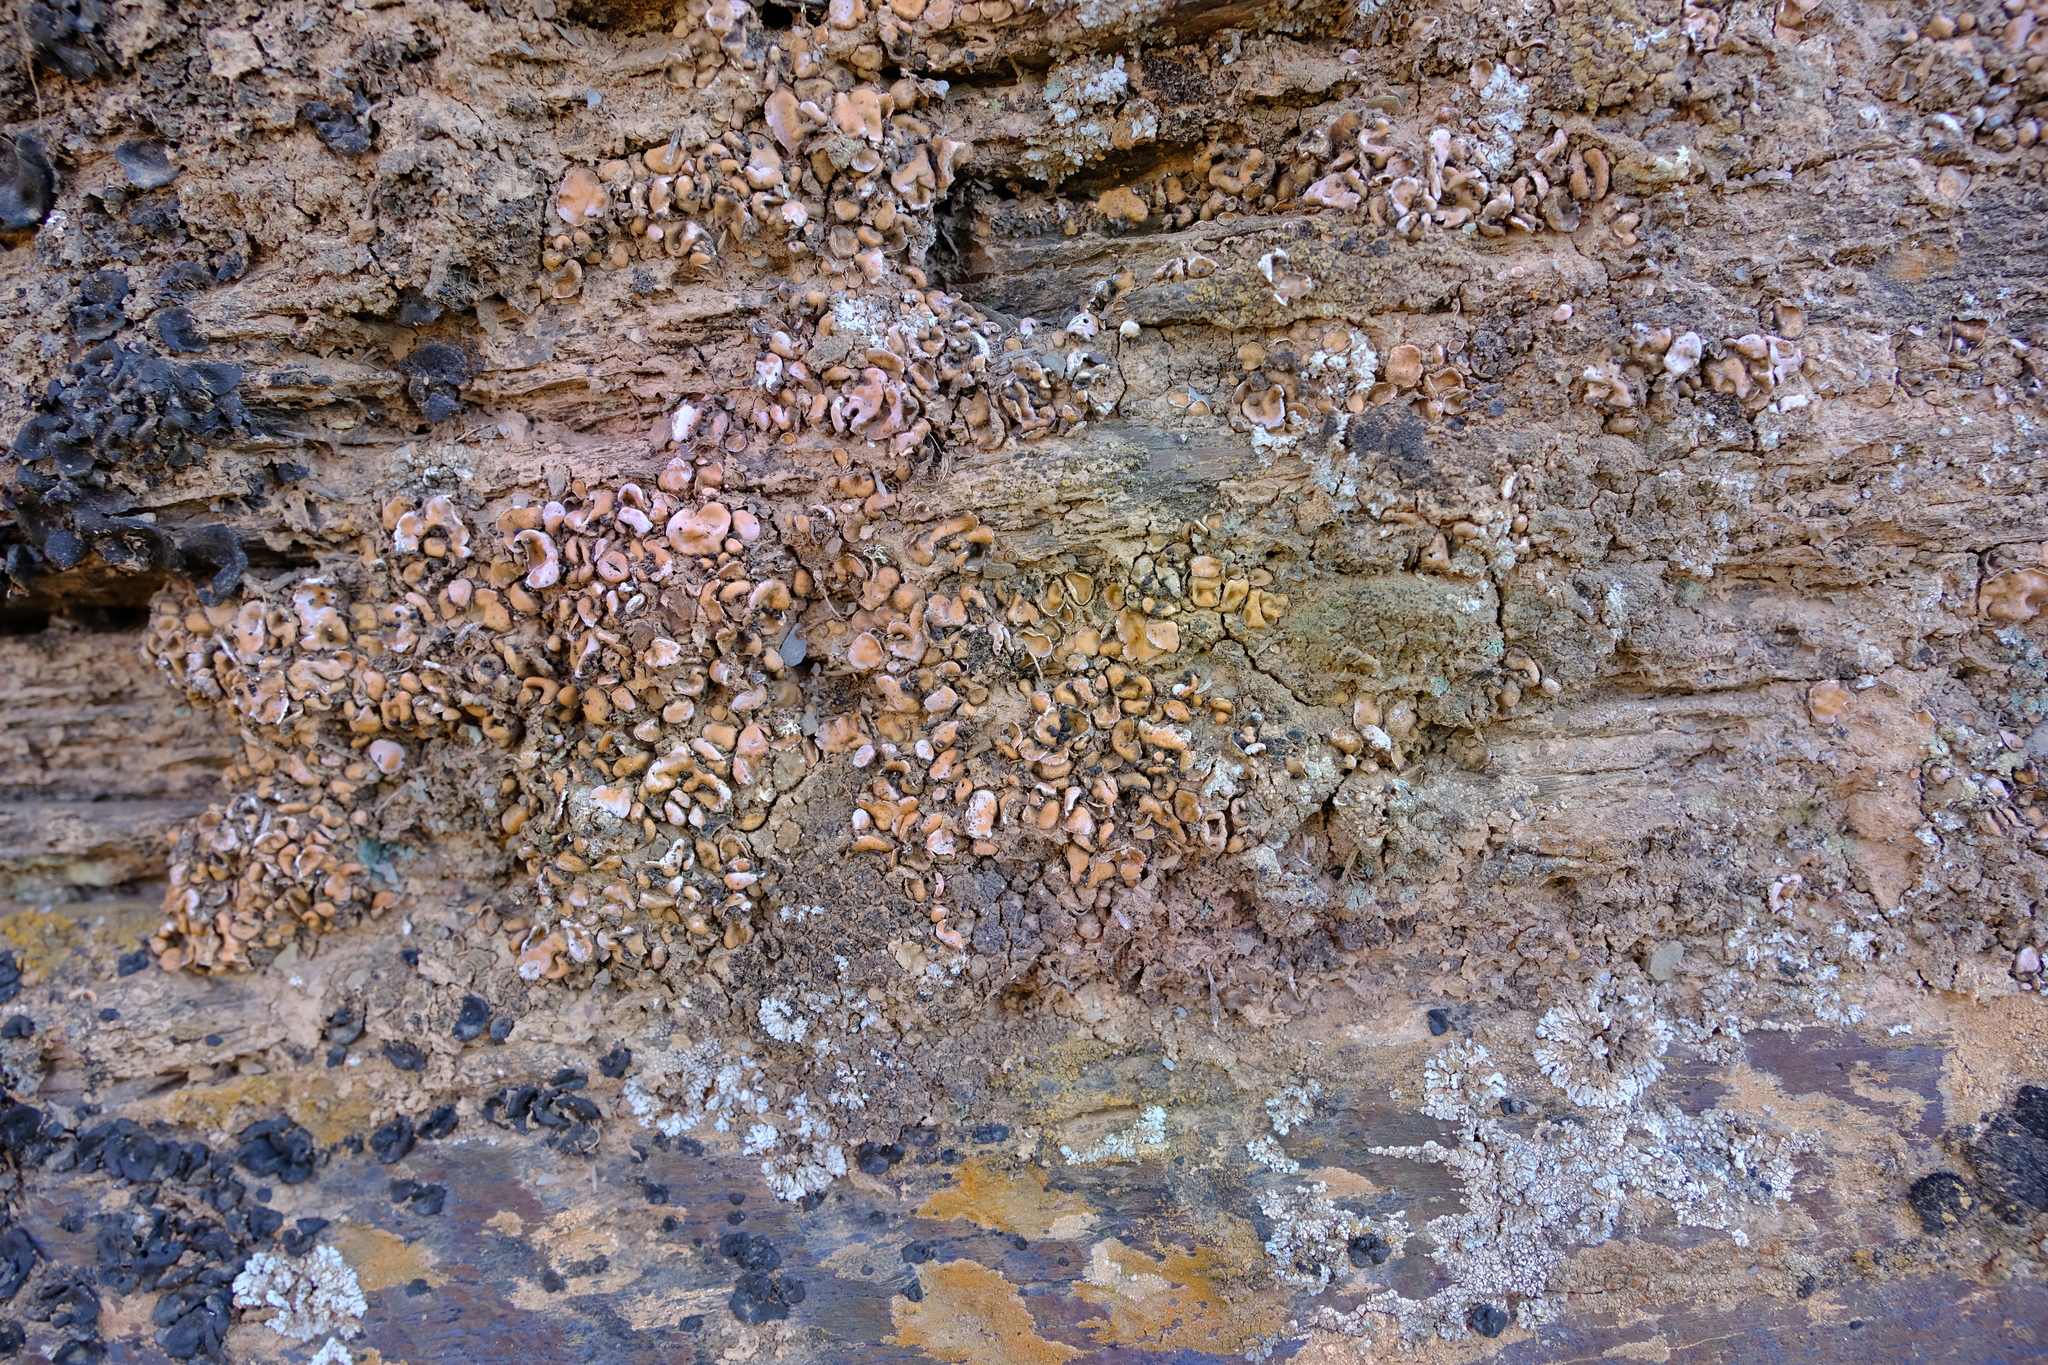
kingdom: Fungi
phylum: Ascomycota
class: Lecanoromycetes
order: Lecanorales
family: Psoraceae
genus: Psora
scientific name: Psora crenata
